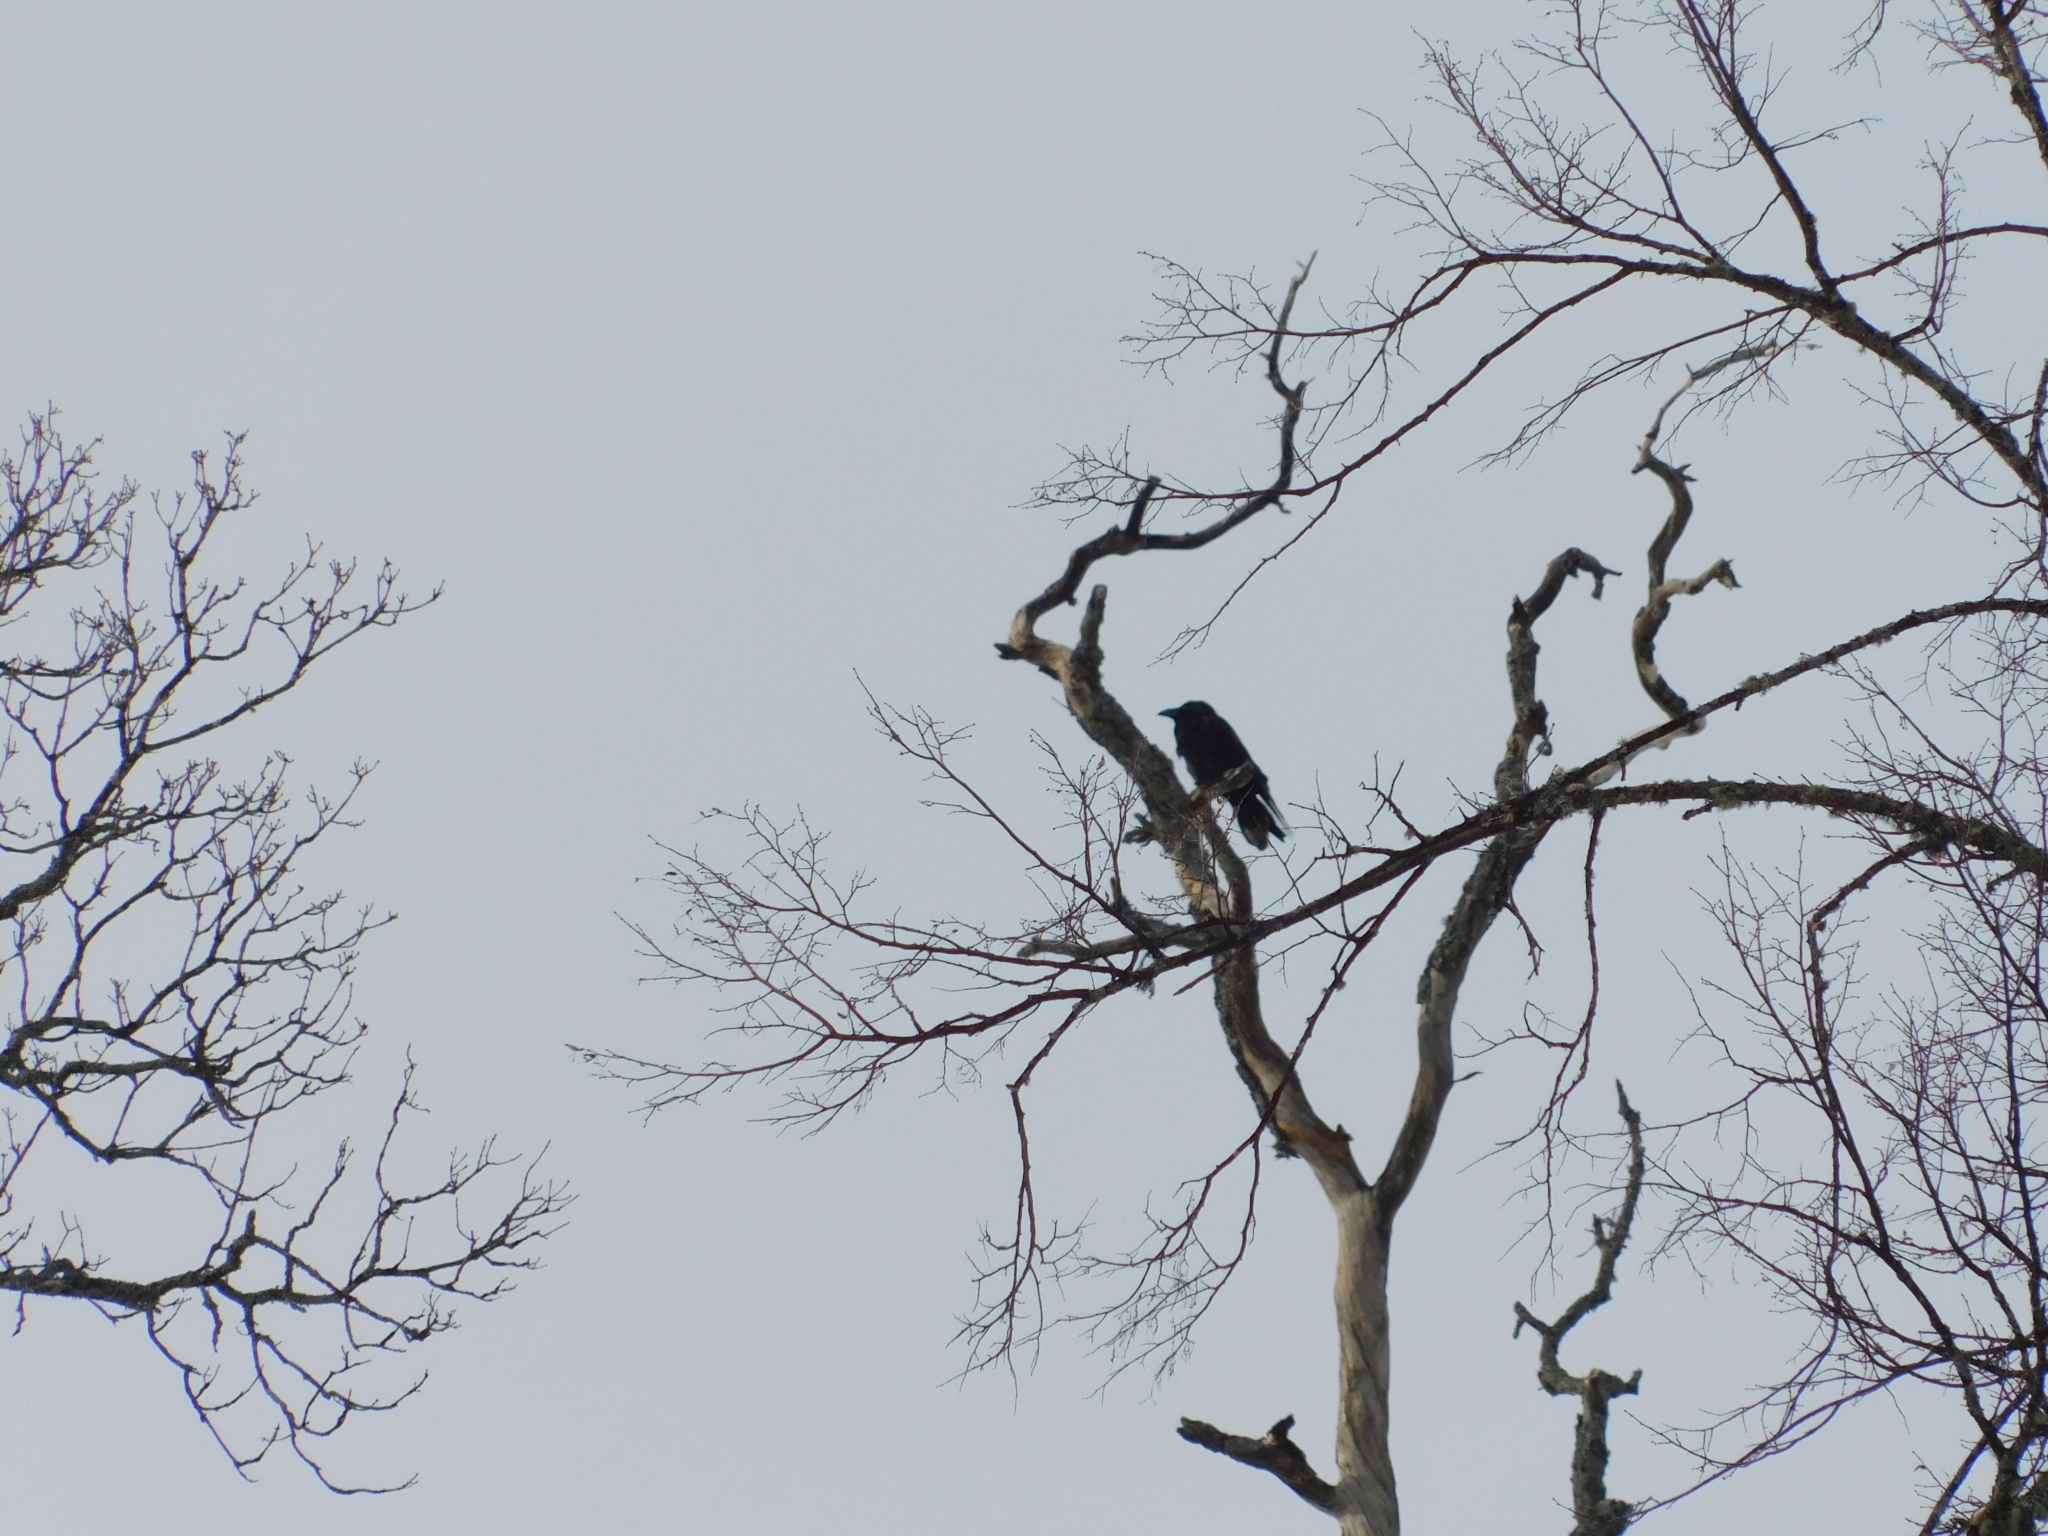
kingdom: Animalia
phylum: Chordata
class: Aves
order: Passeriformes
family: Corvidae
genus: Corvus
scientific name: Corvus corax
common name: Common raven
